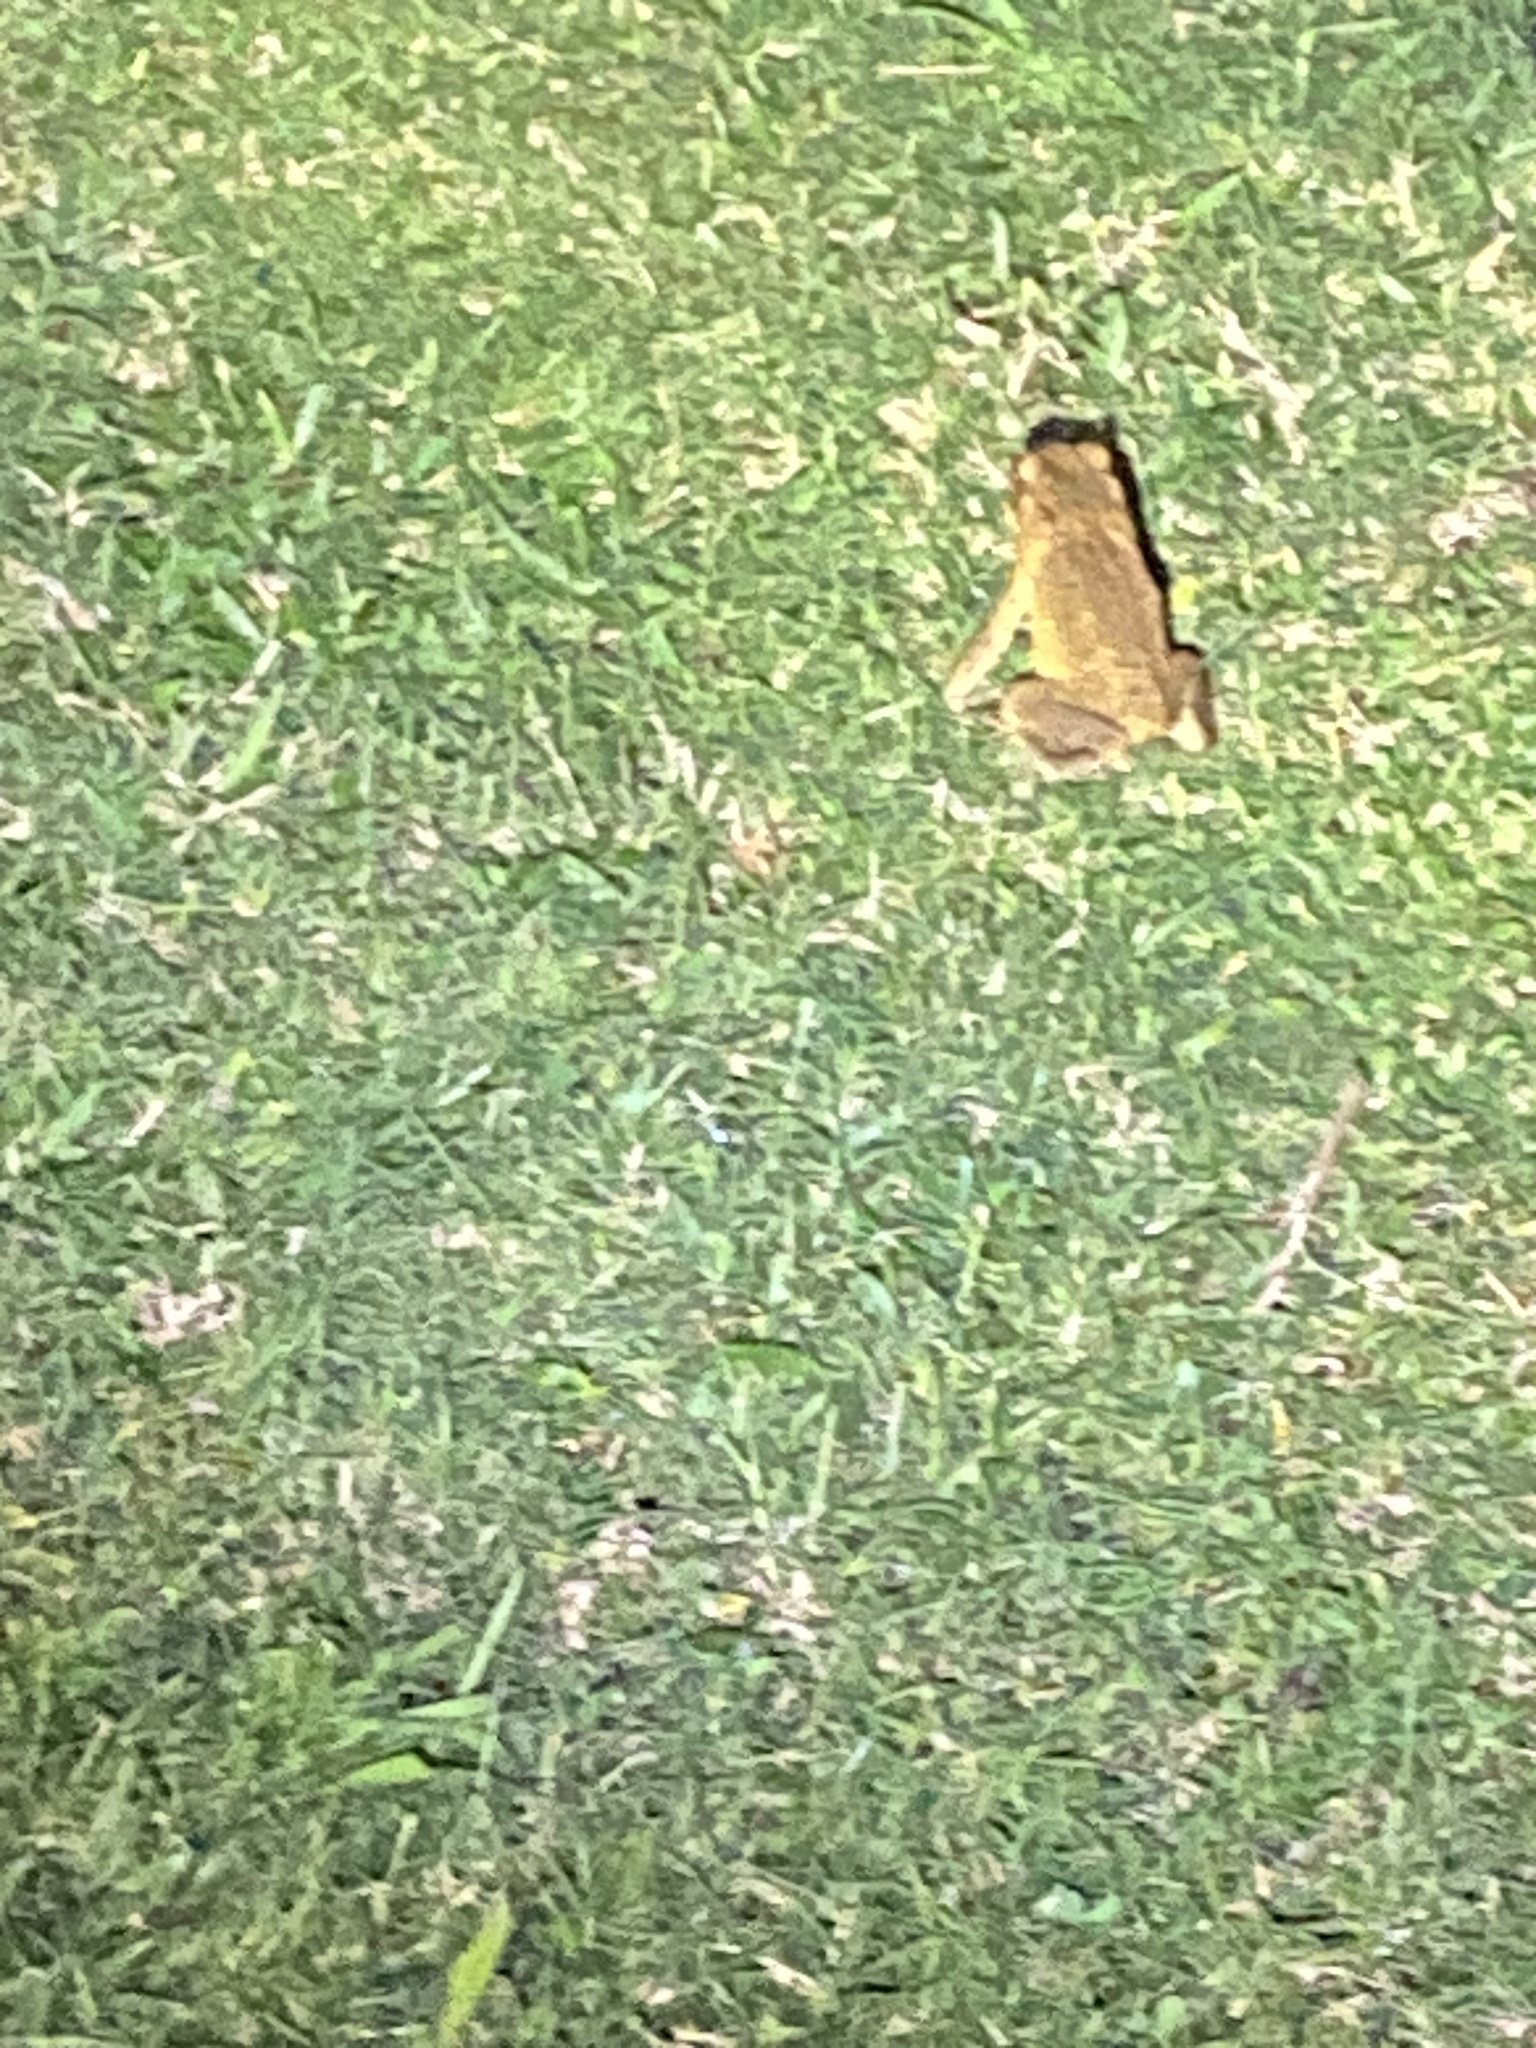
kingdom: Animalia
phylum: Chordata
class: Amphibia
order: Anura
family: Bufonidae
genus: Rhinella
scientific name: Rhinella marina
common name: Cane toad
